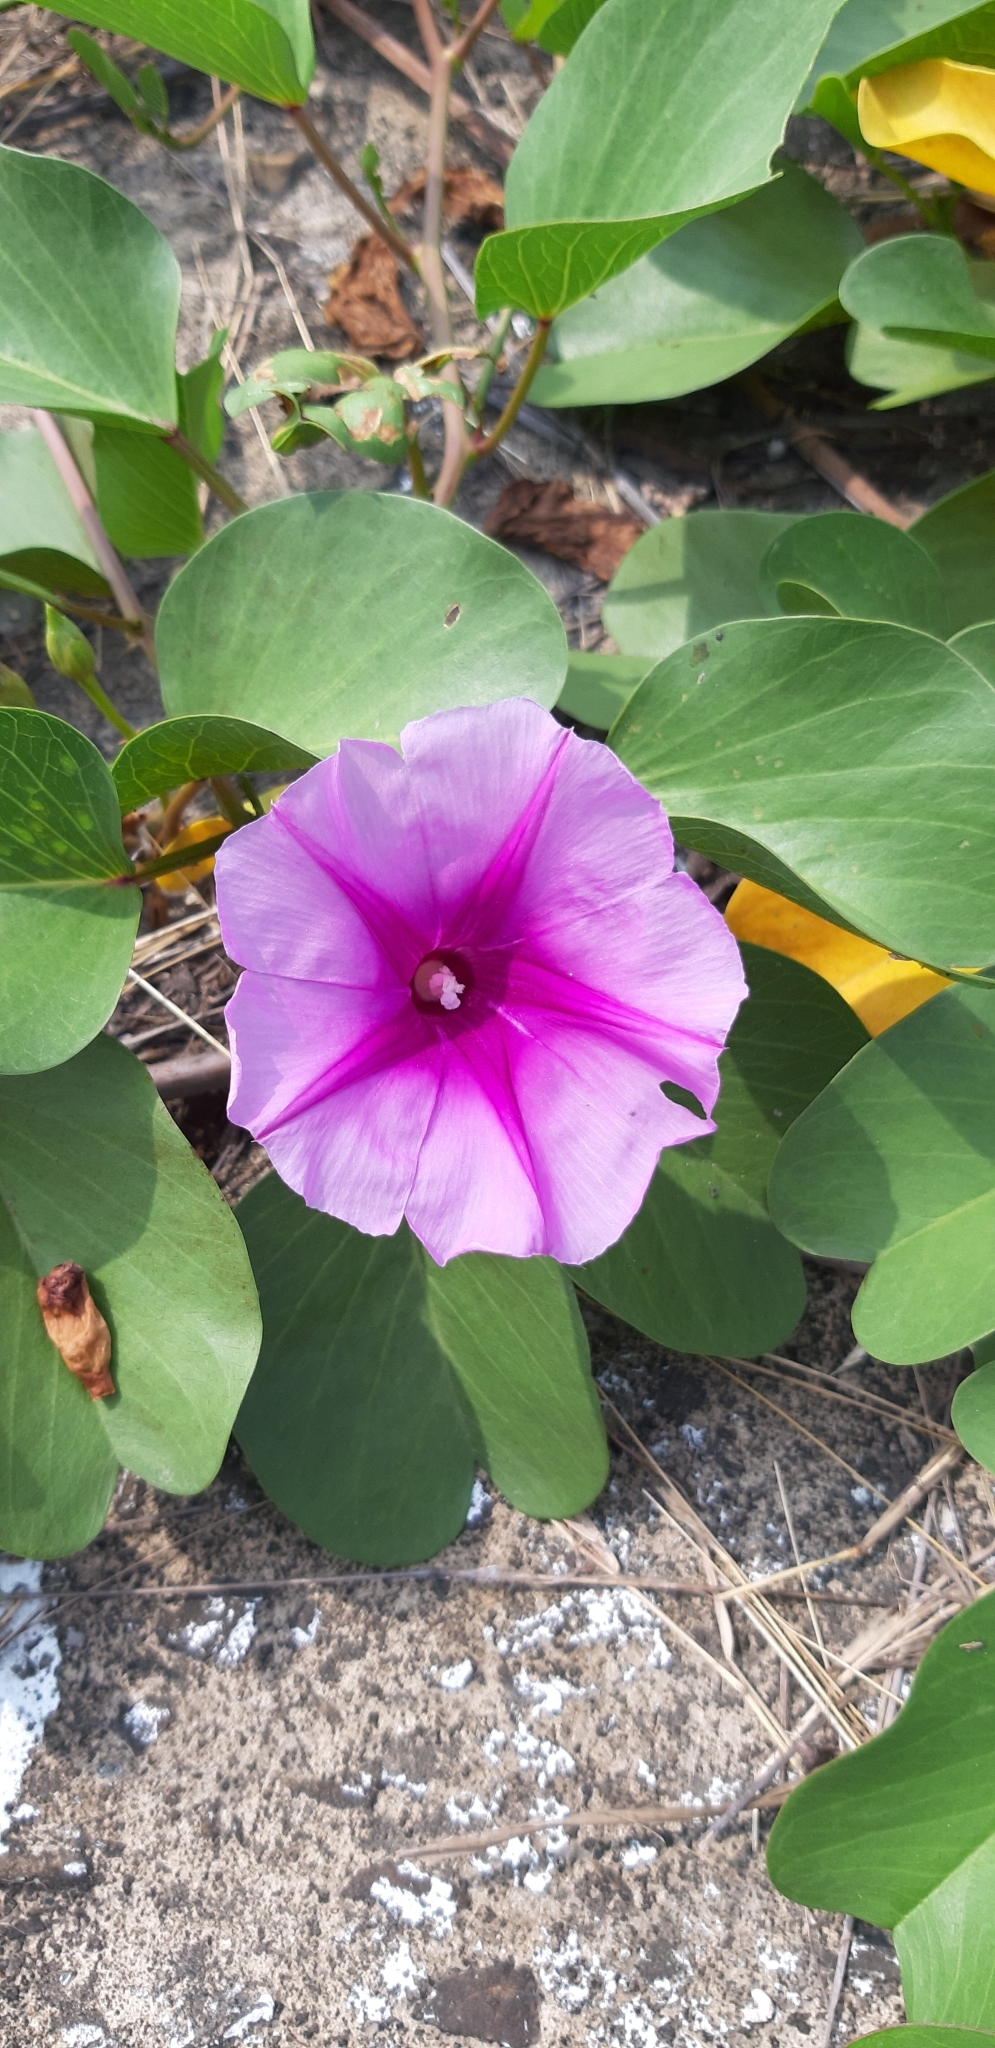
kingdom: Plantae
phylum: Tracheophyta
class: Magnoliopsida
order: Solanales
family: Convolvulaceae
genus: Ipomoea
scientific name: Ipomoea pes-caprae
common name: Beach morning glory
